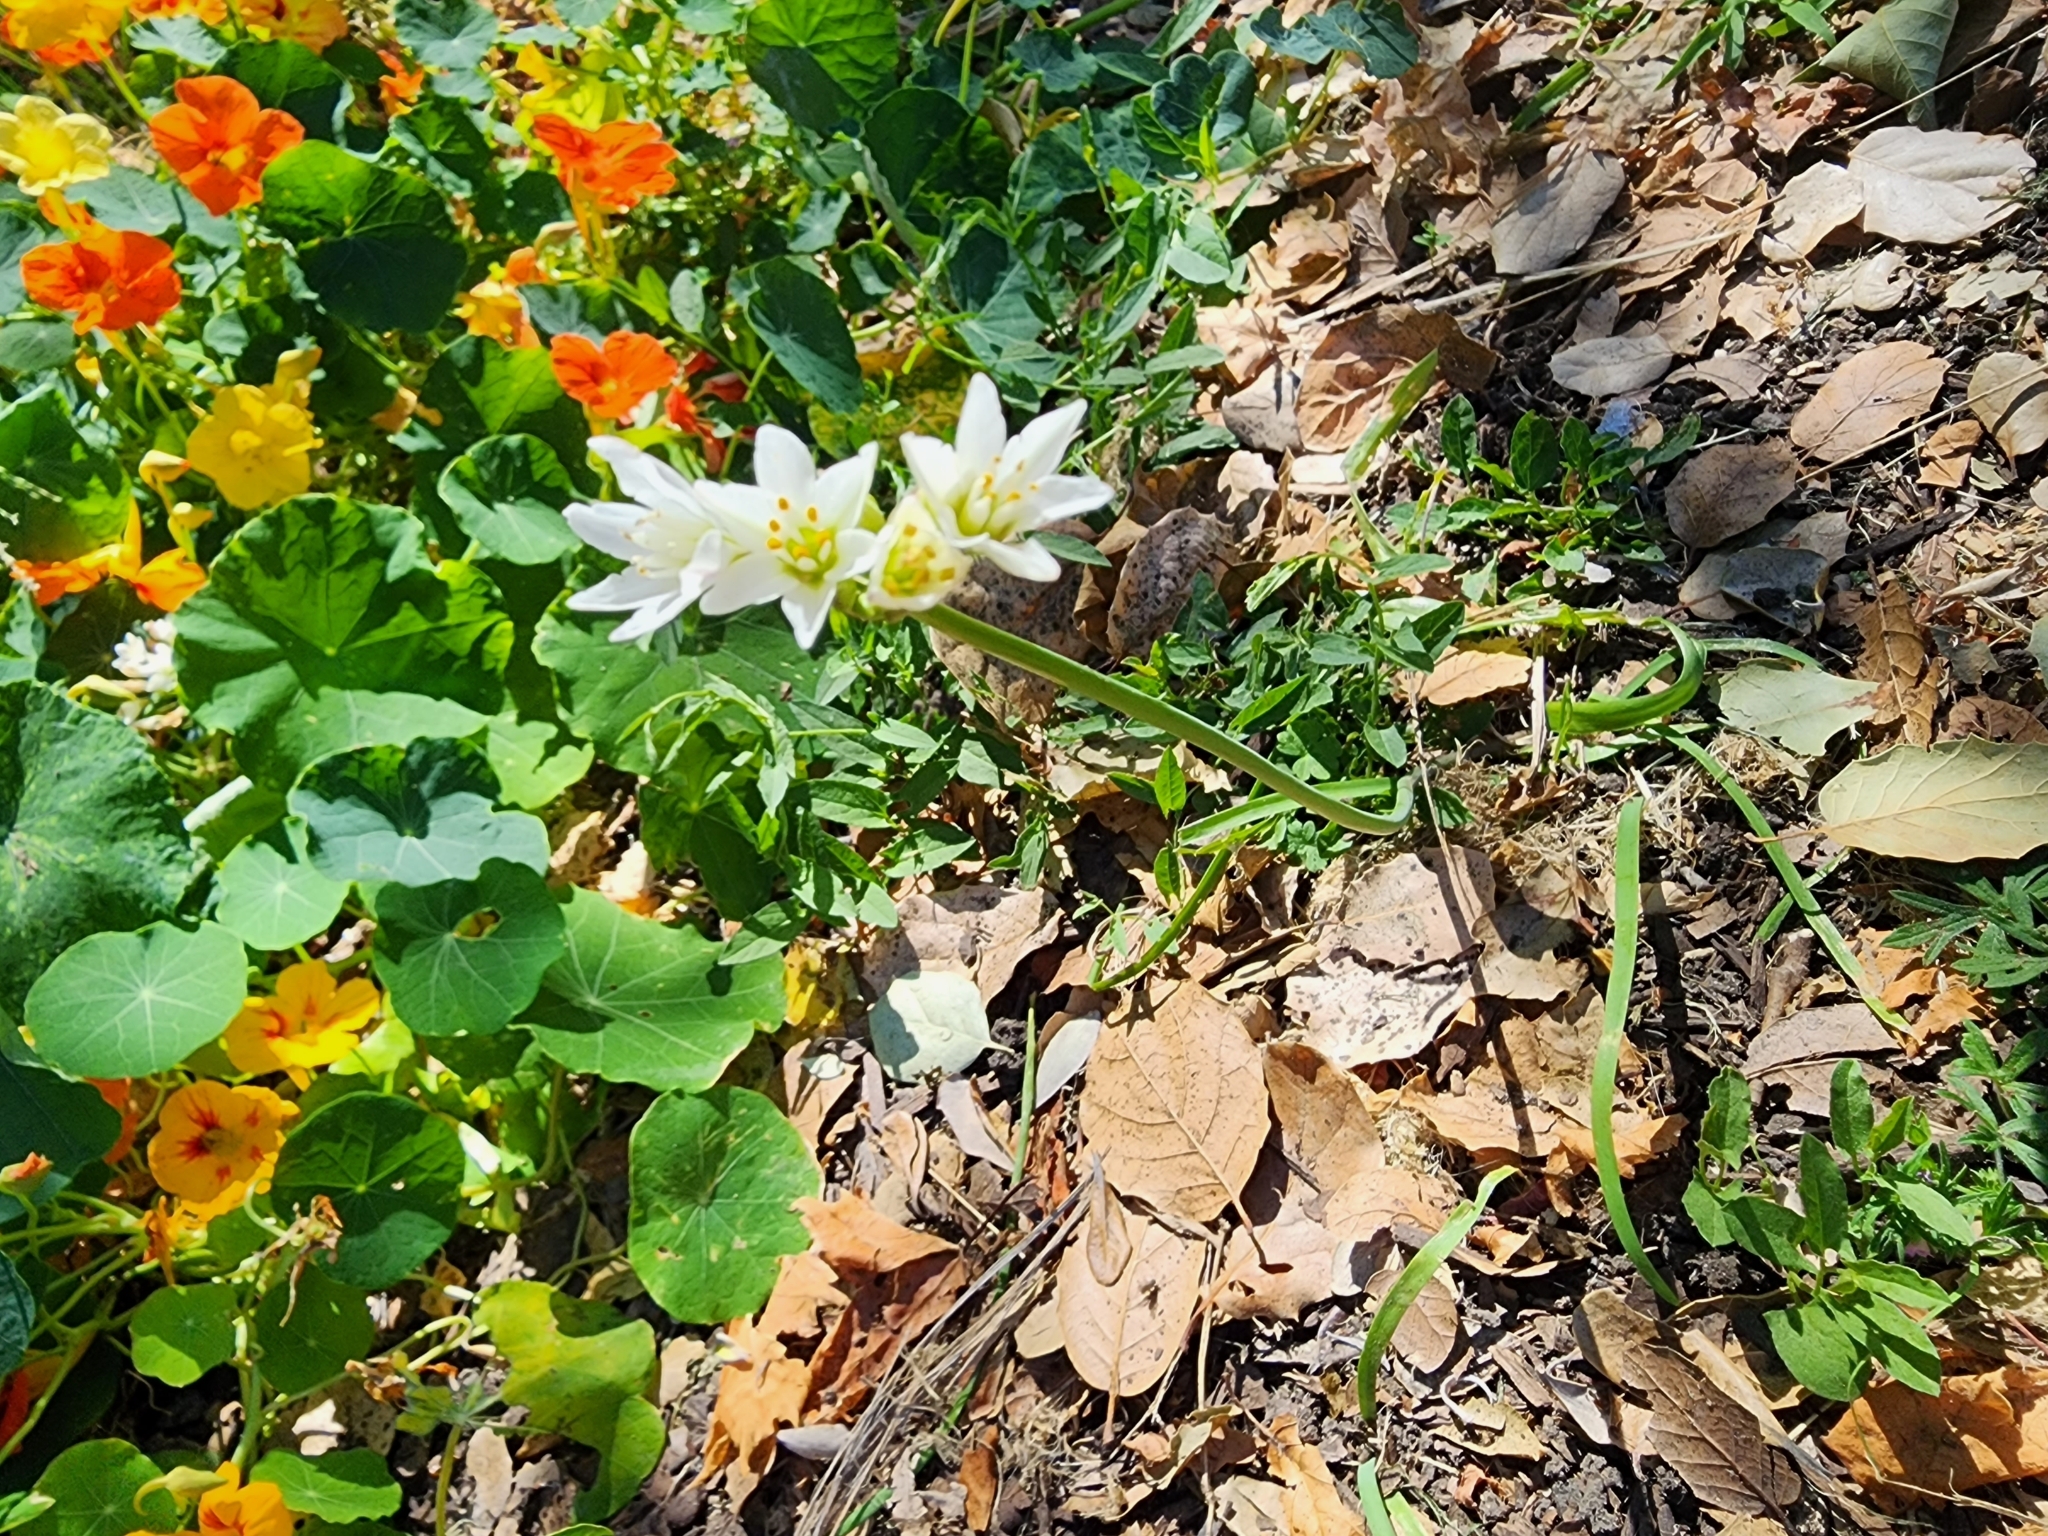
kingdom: Plantae
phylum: Tracheophyta
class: Liliopsida
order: Asparagales
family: Amaryllidaceae
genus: Nothoscordum
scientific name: Nothoscordum gracile
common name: Slender false garlic
